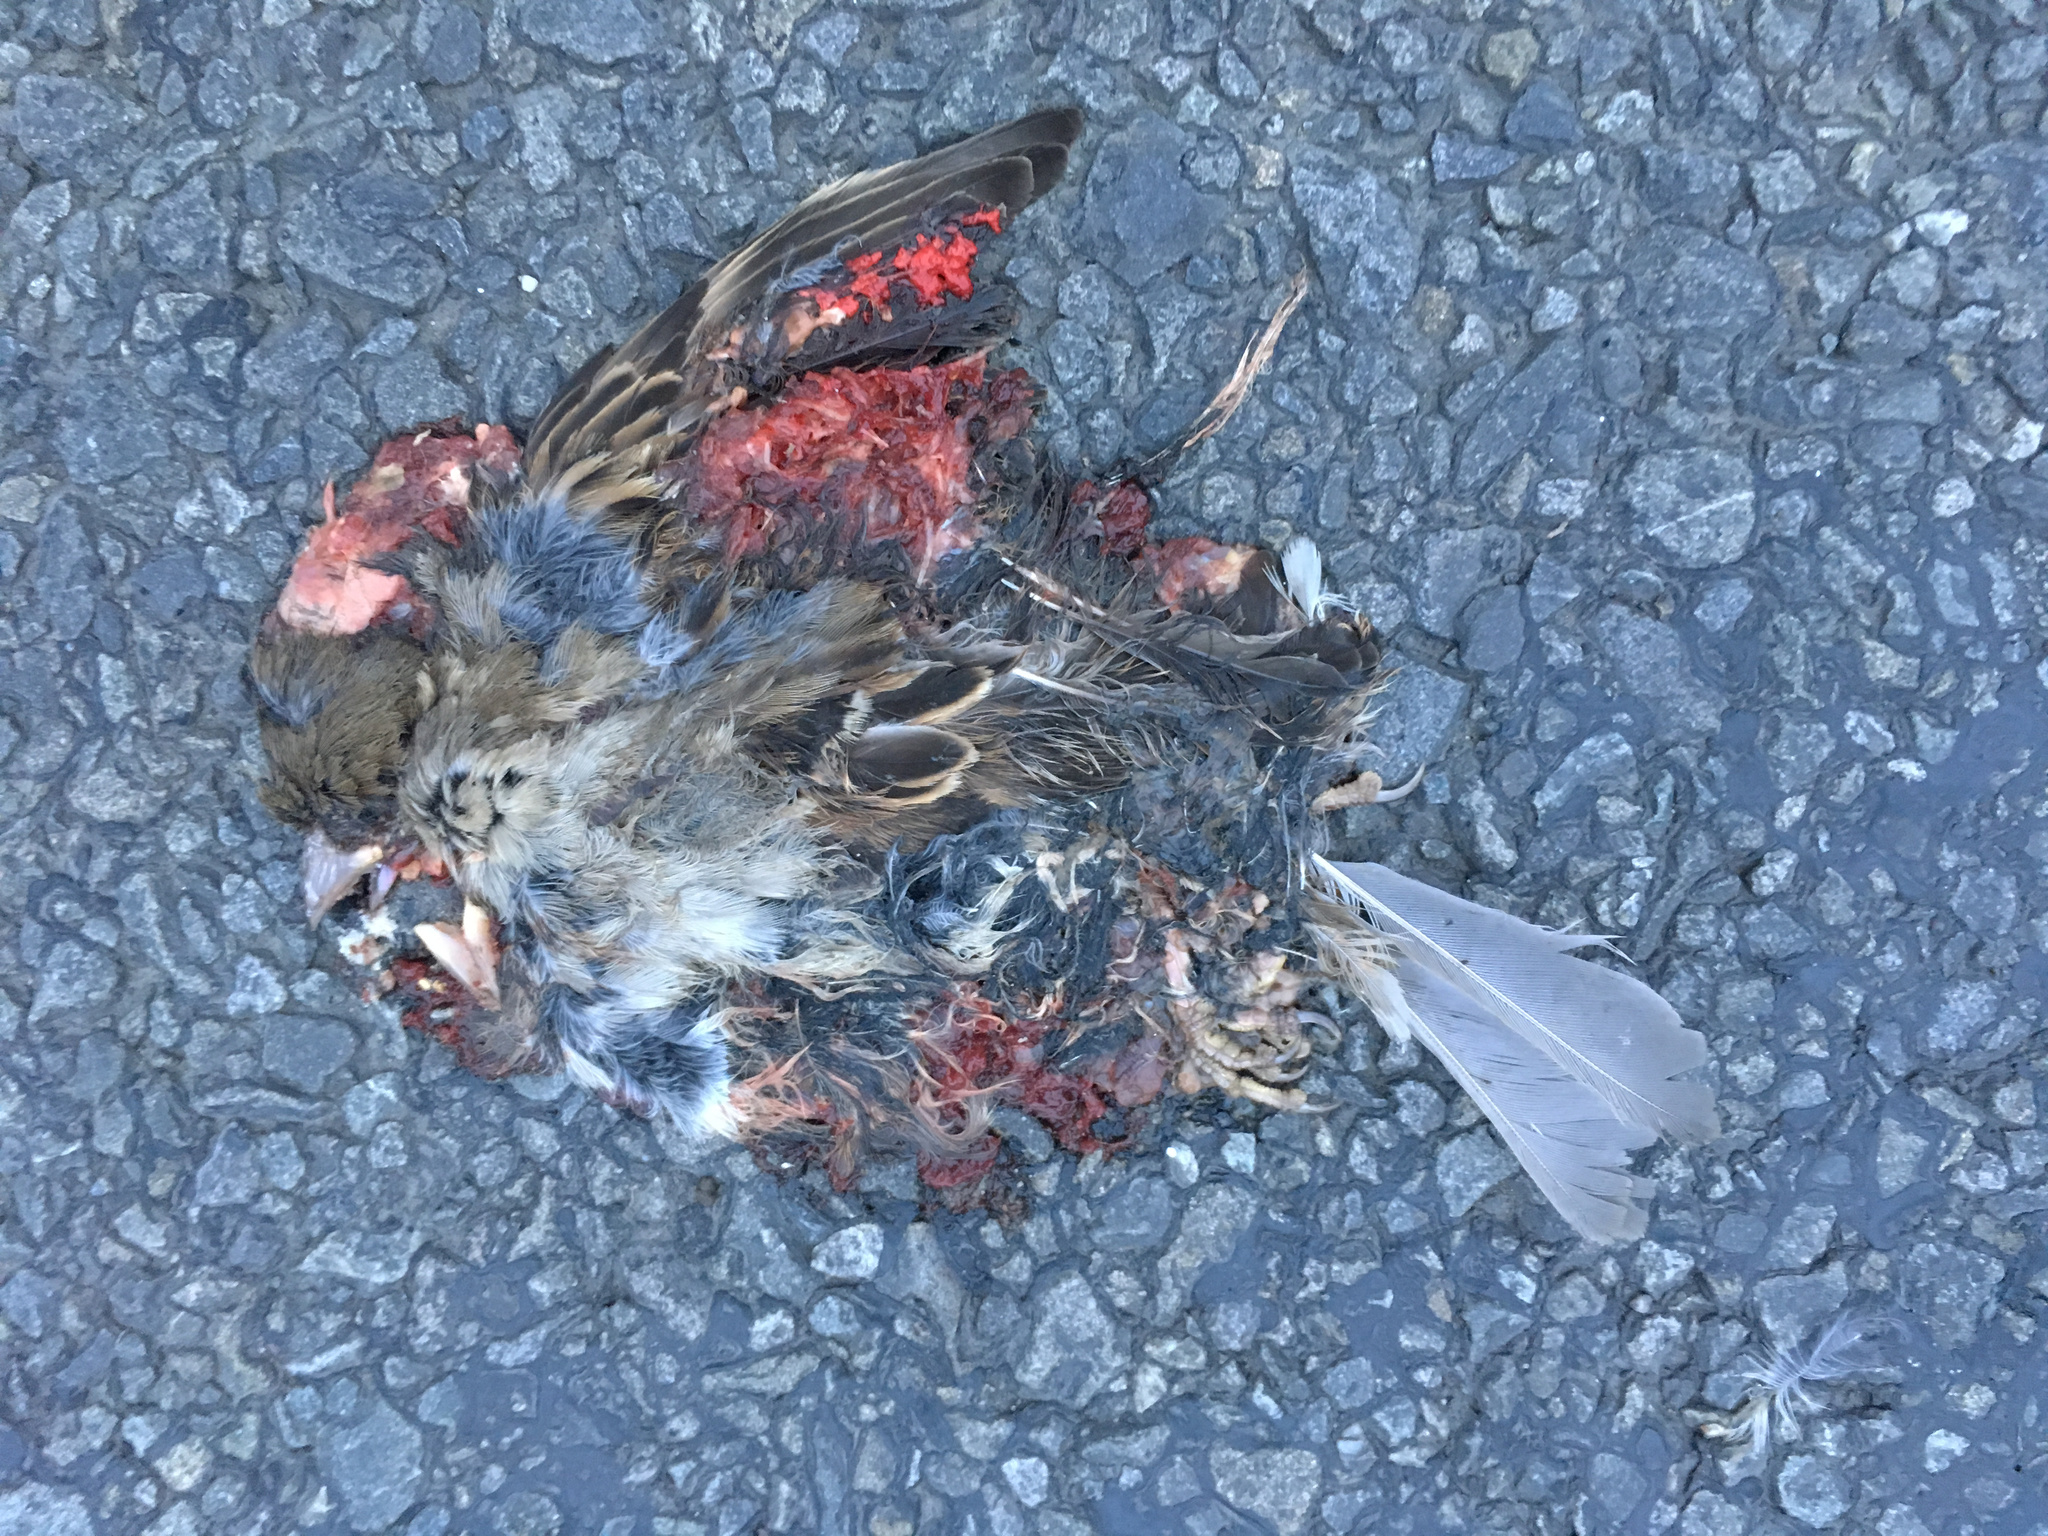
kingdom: Animalia
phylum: Chordata
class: Aves
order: Passeriformes
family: Passeridae
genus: Passer
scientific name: Passer domesticus
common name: House sparrow
